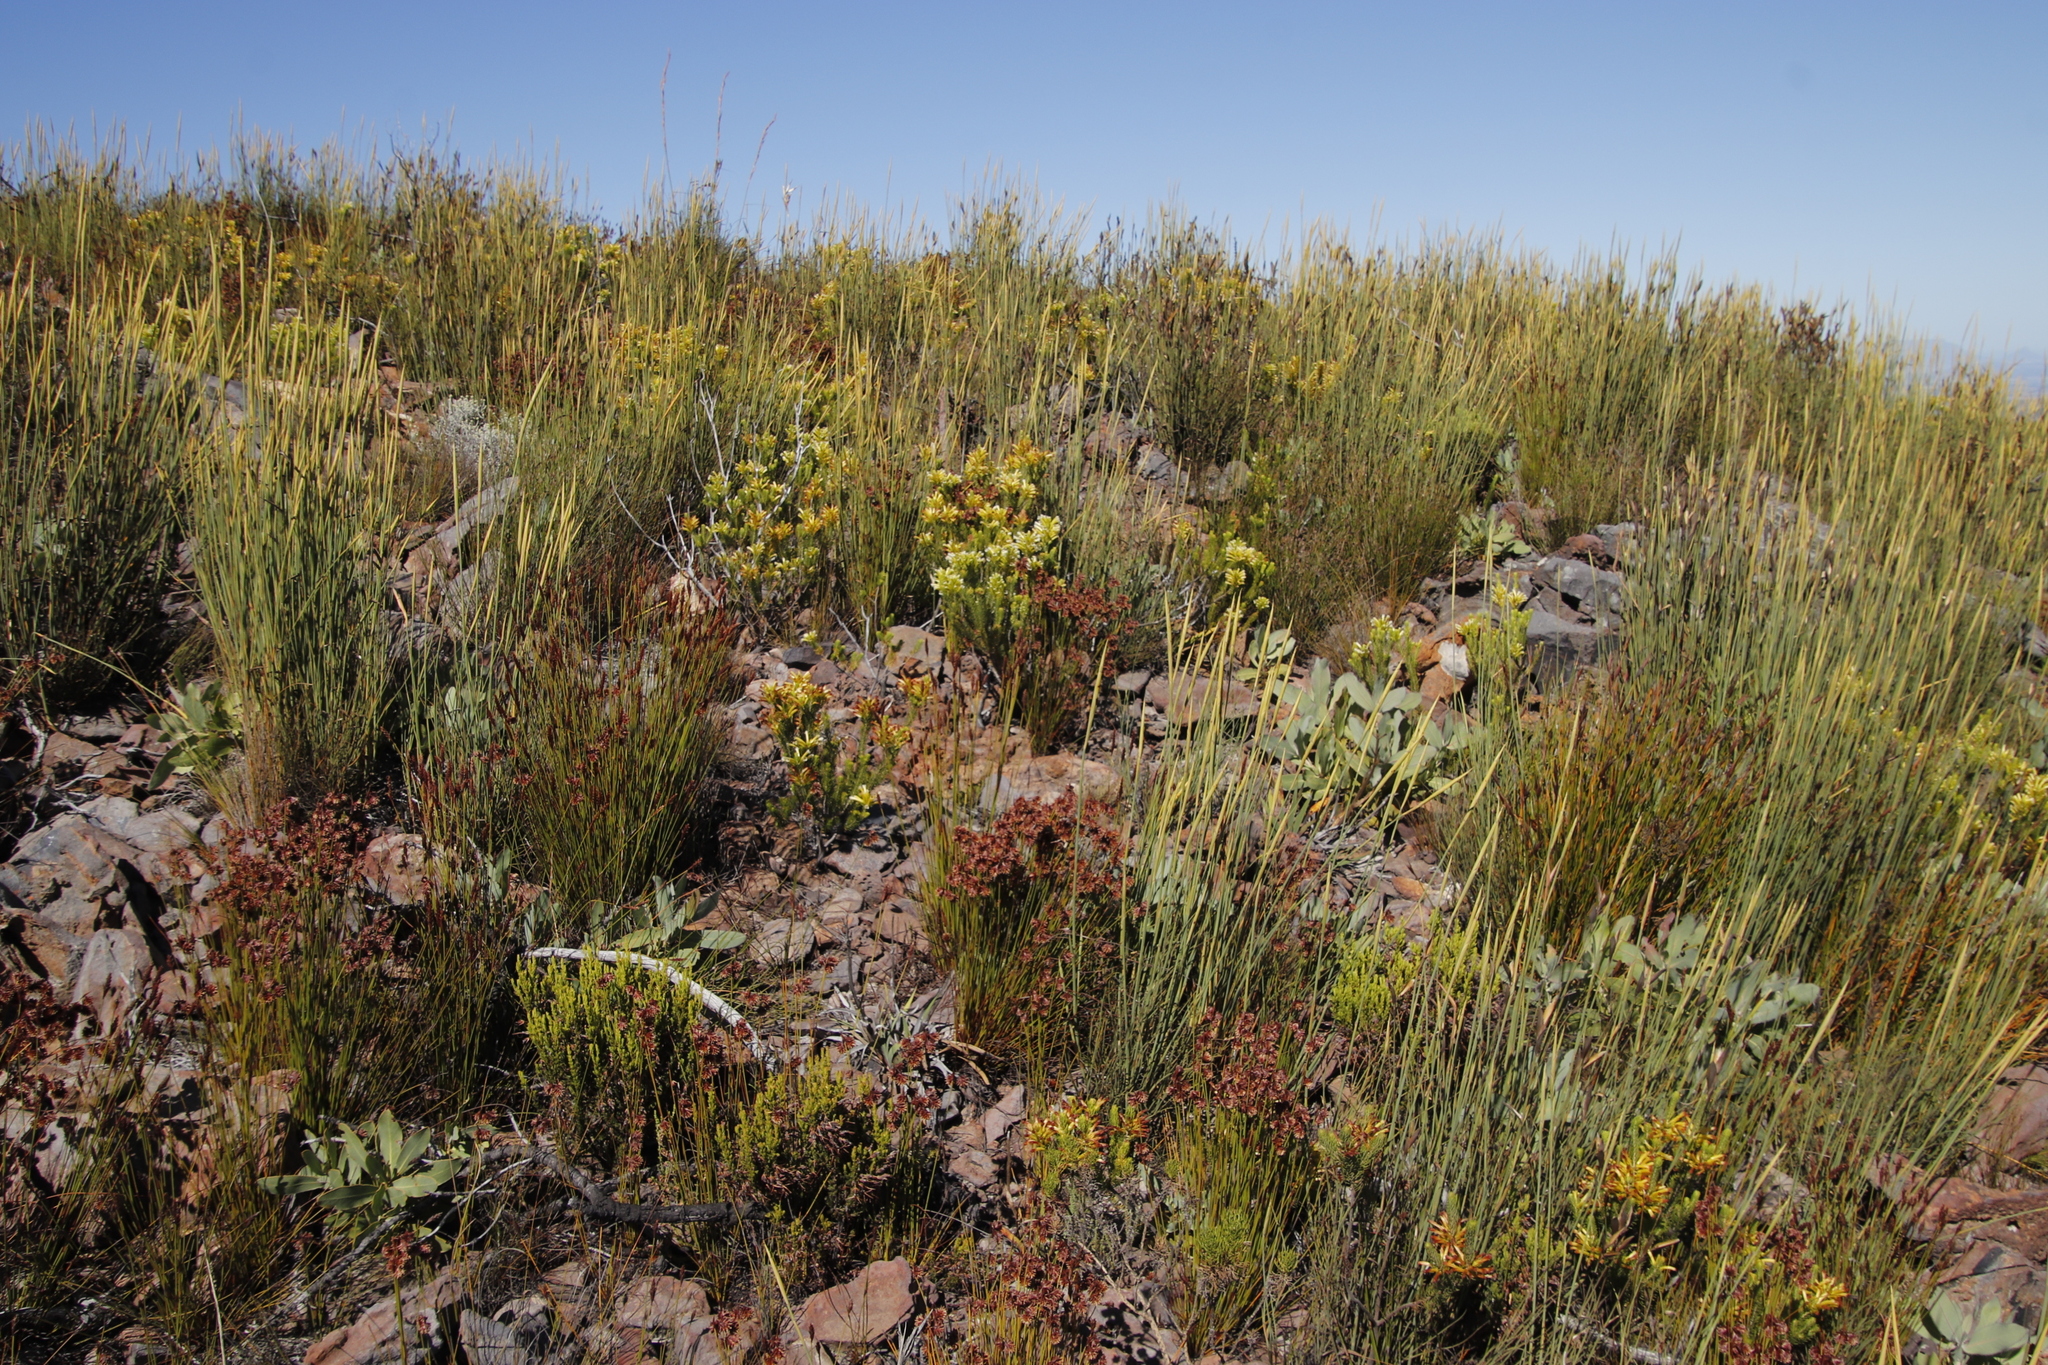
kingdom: Plantae
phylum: Tracheophyta
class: Magnoliopsida
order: Ericales
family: Ericaceae
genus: Erica
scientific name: Erica pinea
